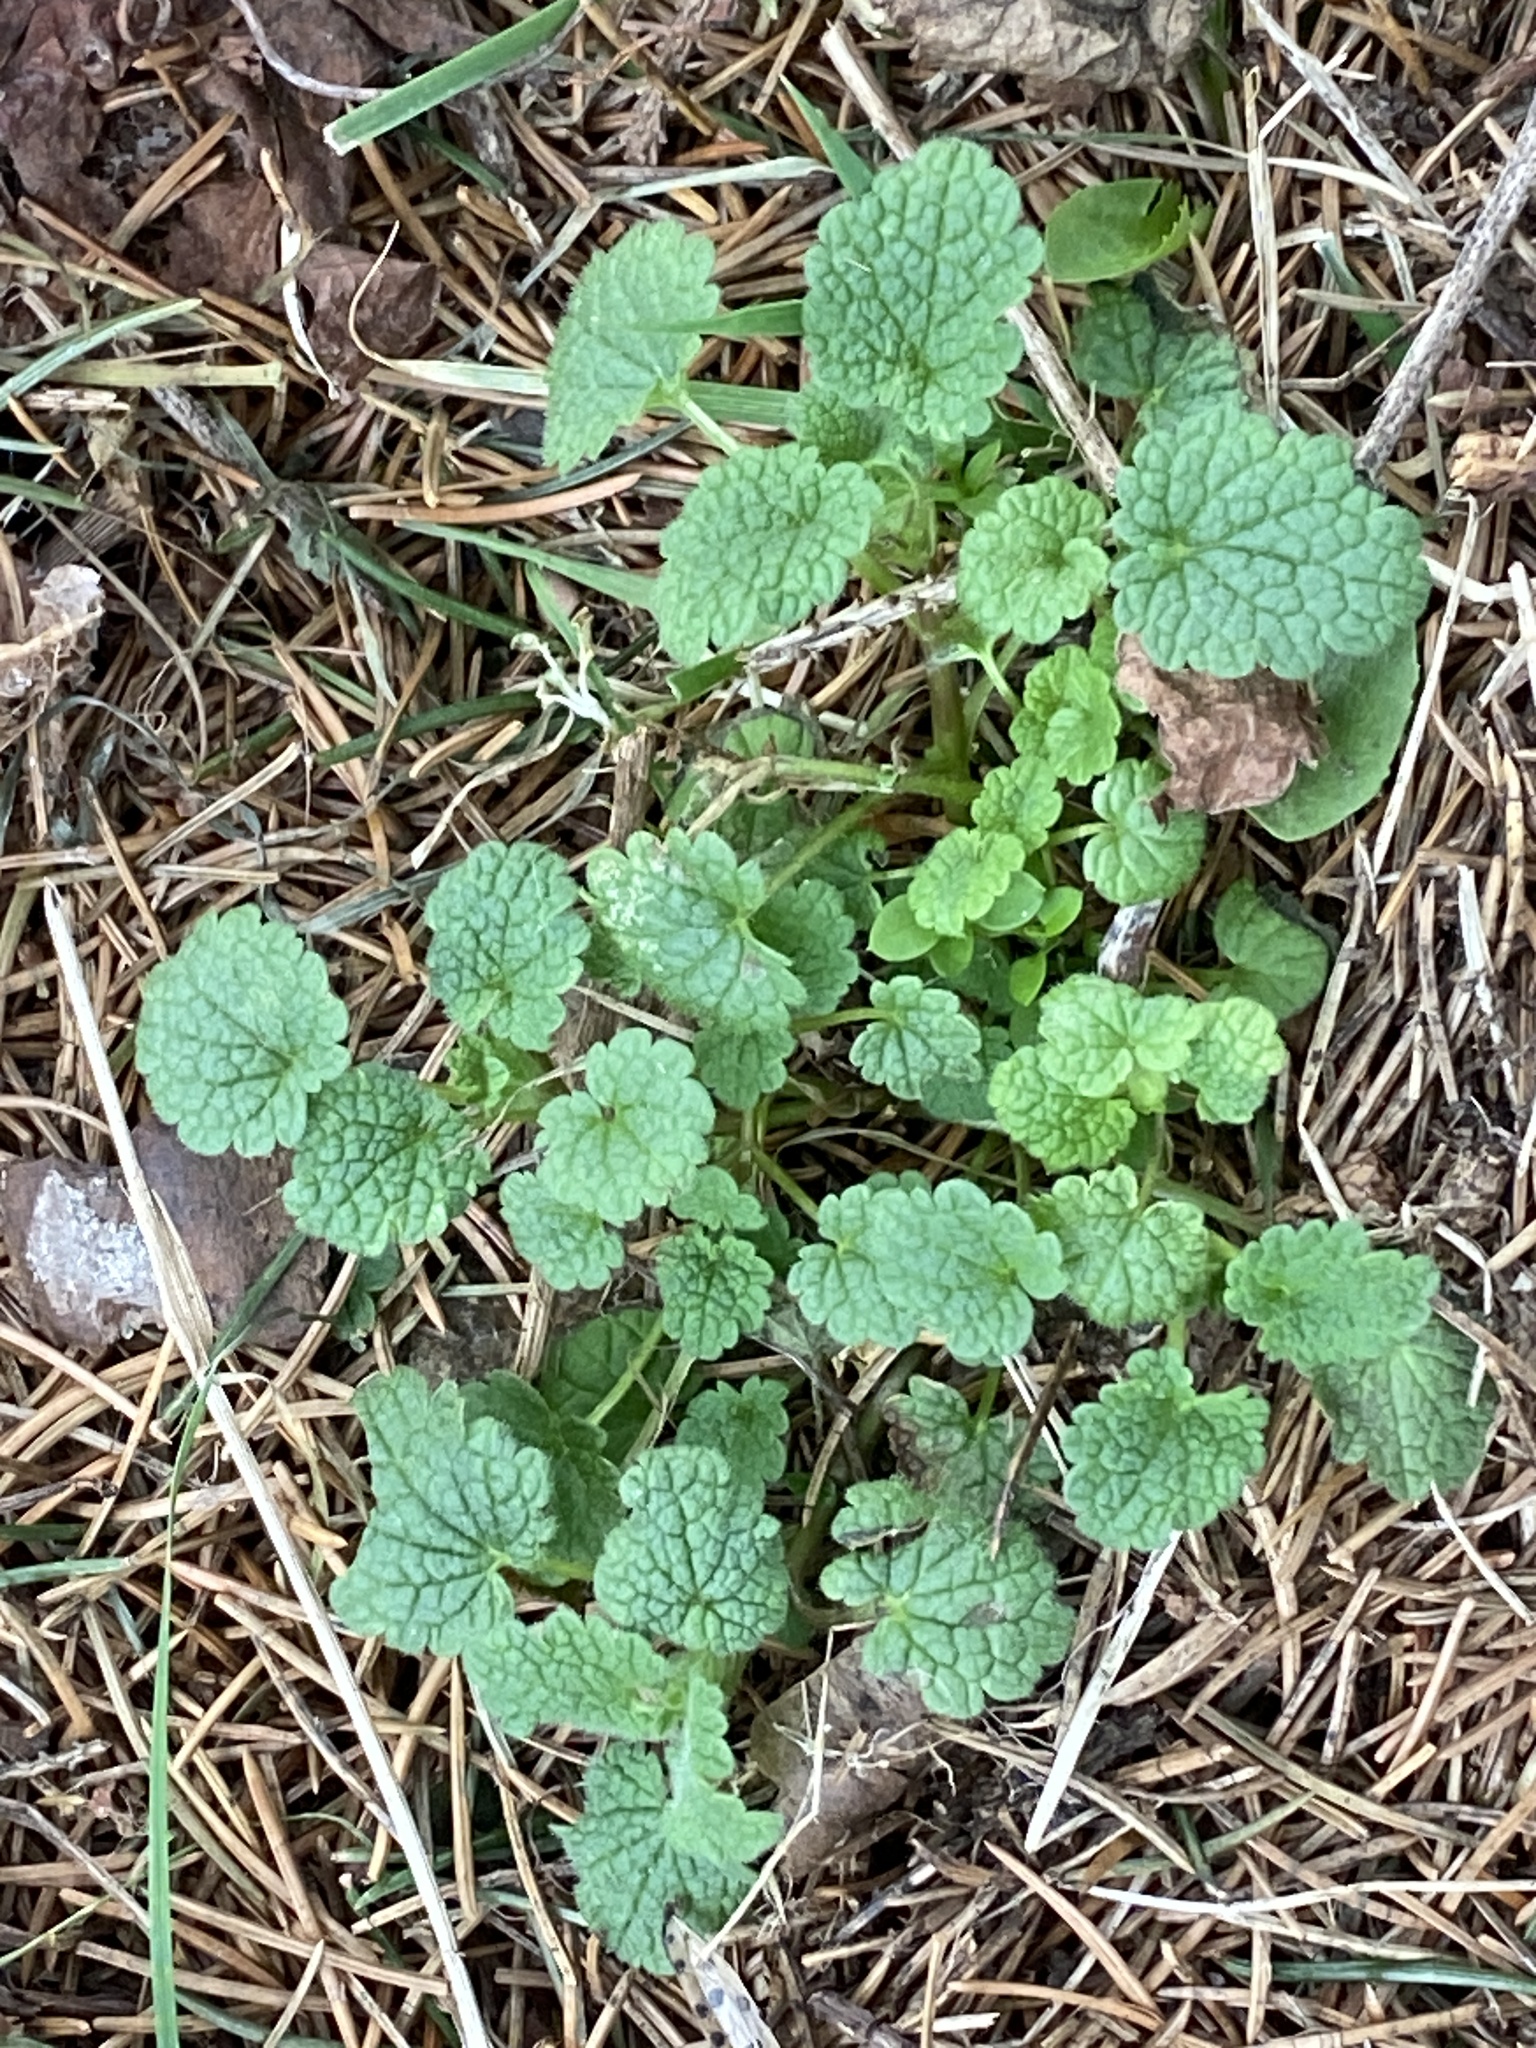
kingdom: Plantae
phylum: Tracheophyta
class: Magnoliopsida
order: Lamiales
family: Lamiaceae
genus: Lamium
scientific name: Lamium purpureum
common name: Red dead-nettle
